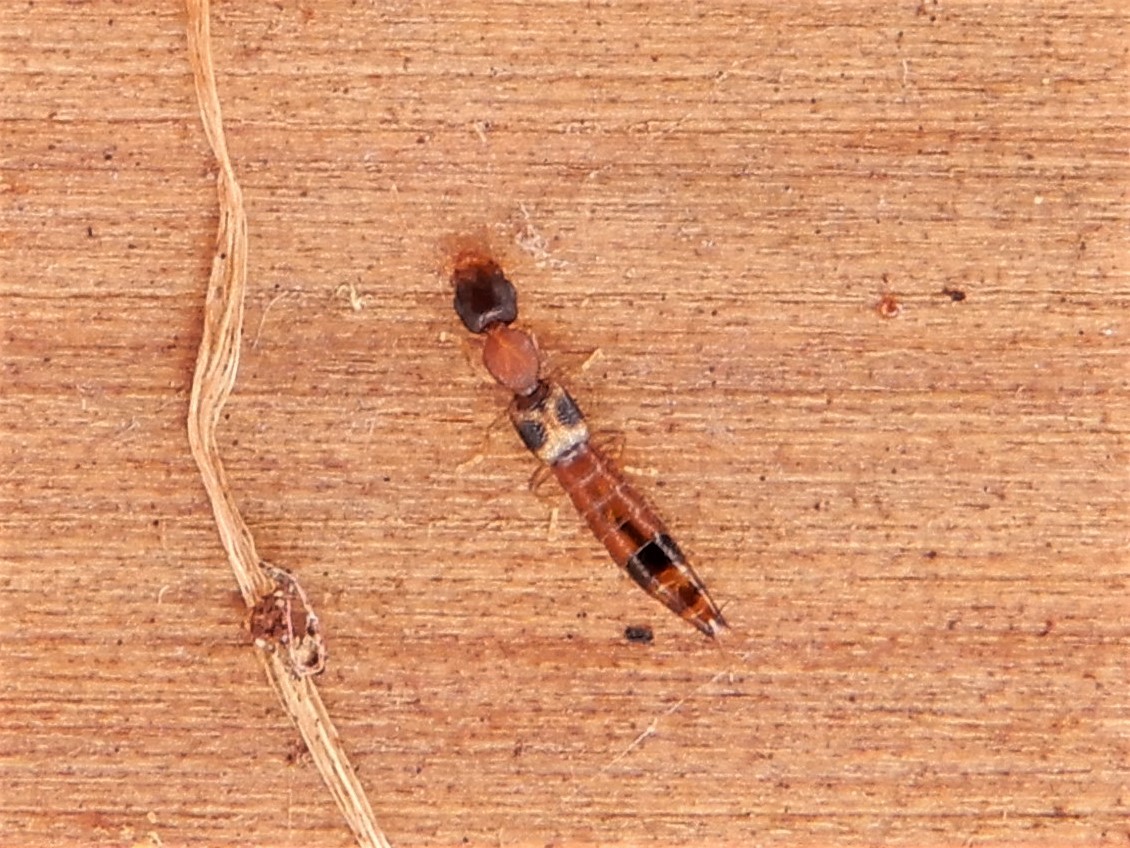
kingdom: Animalia
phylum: Arthropoda
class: Insecta
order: Coleoptera
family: Staphylinidae
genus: Astenus
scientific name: Astenus guttulus
